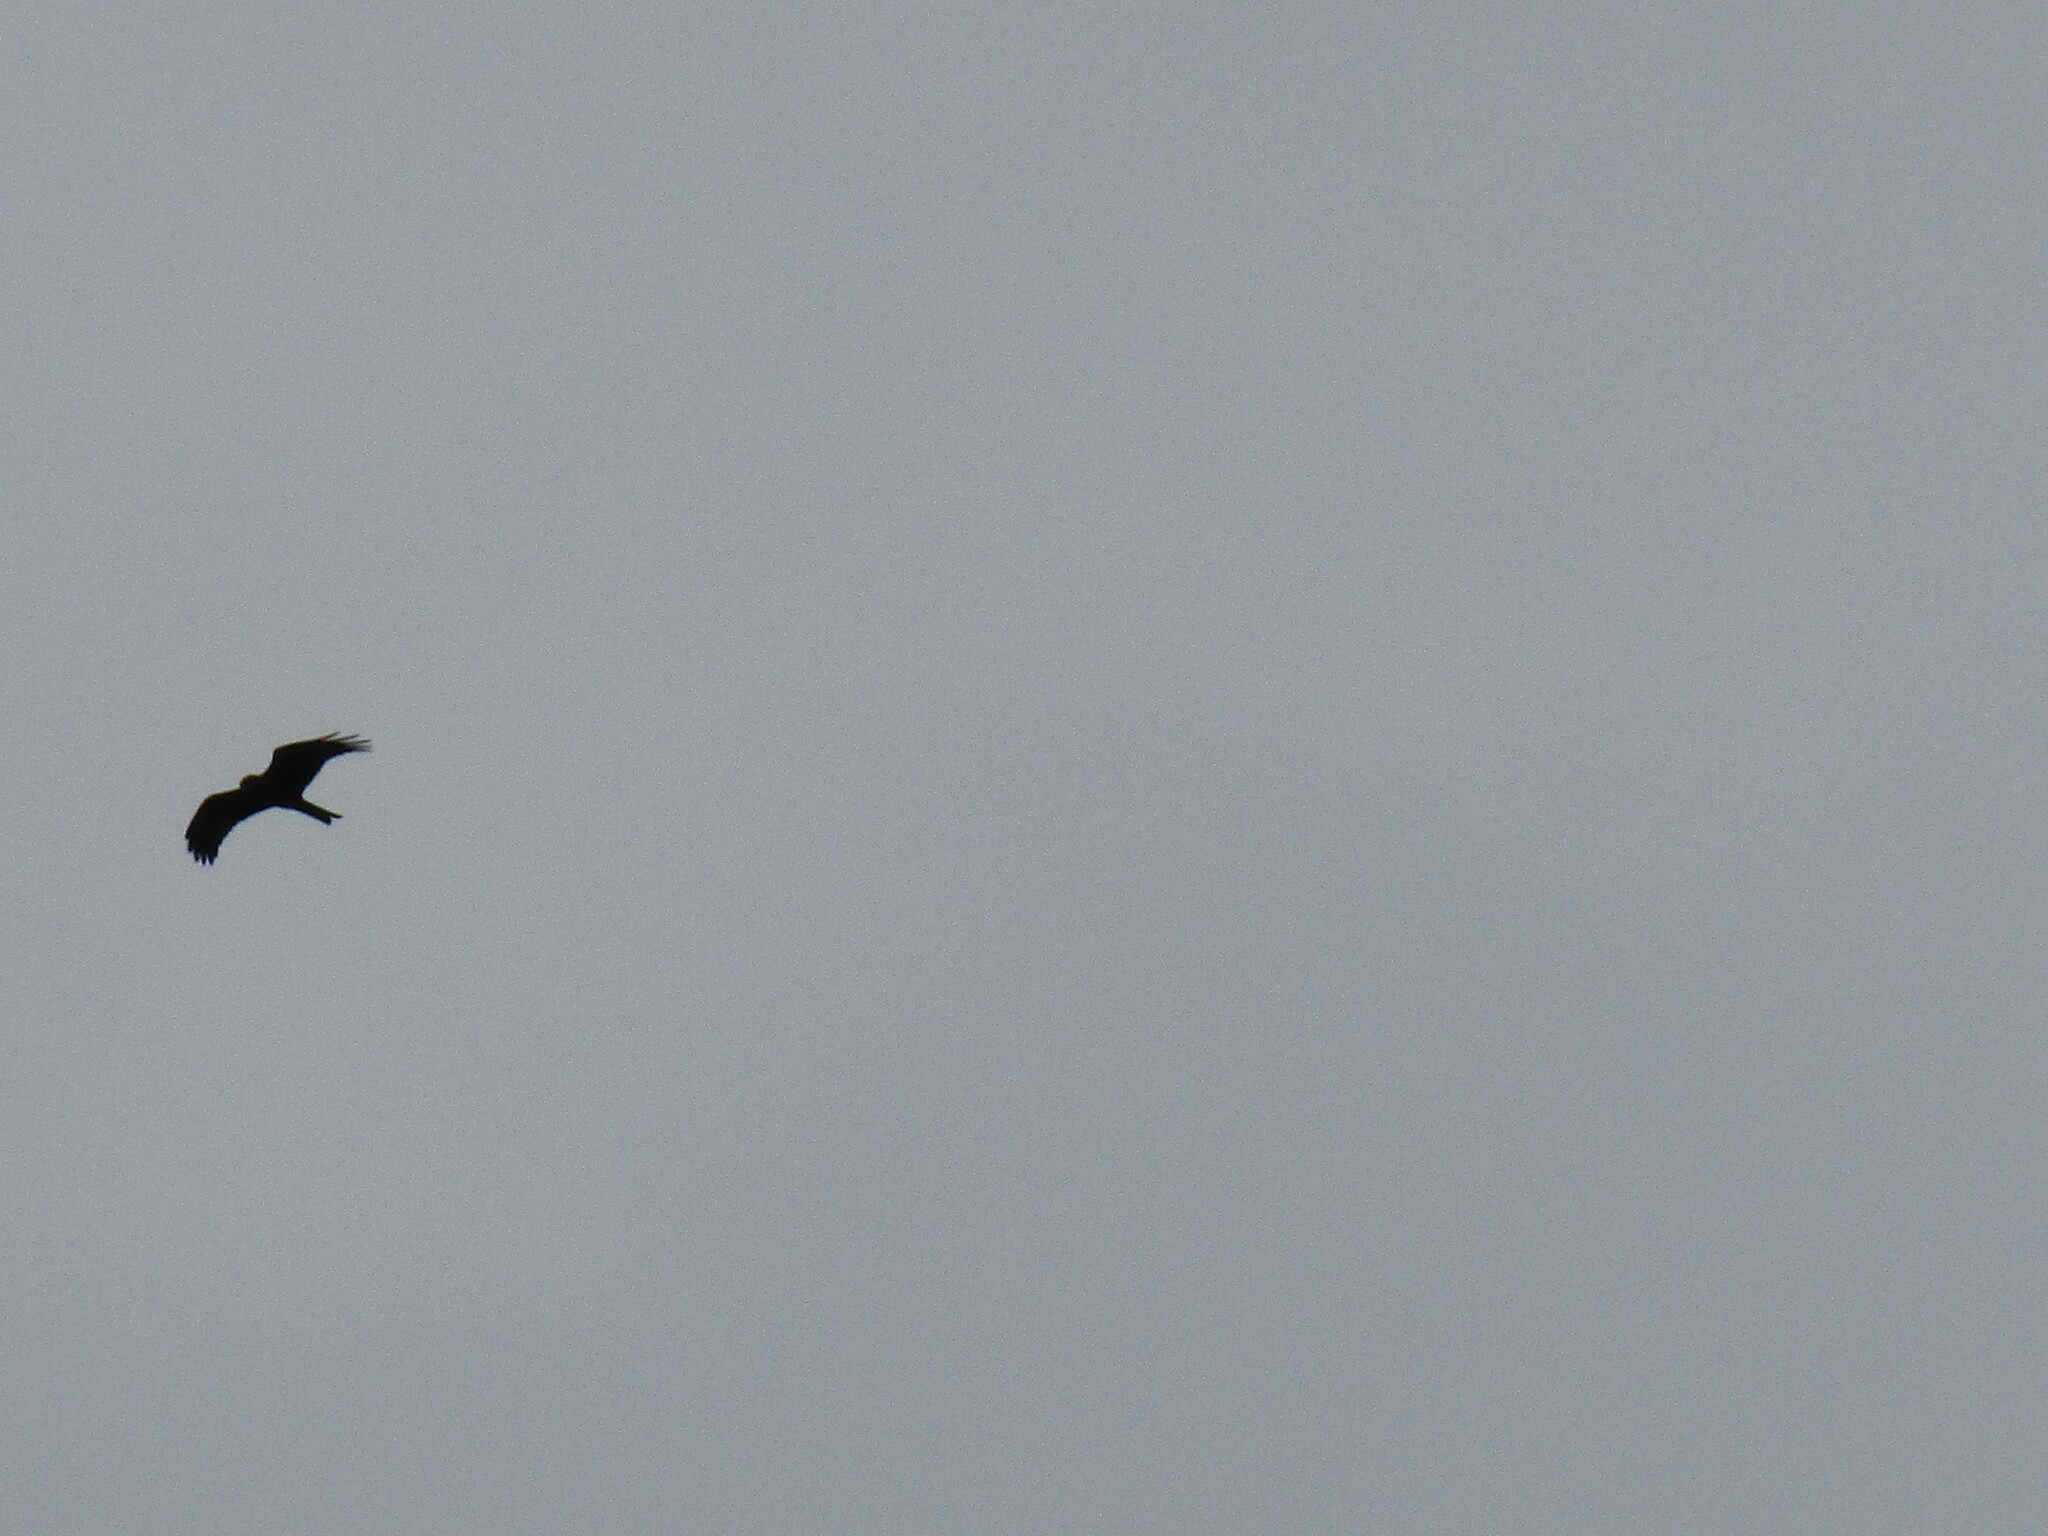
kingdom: Animalia
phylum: Chordata
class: Aves
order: Accipitriformes
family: Accipitridae
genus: Milvus
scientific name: Milvus migrans
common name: Black kite
